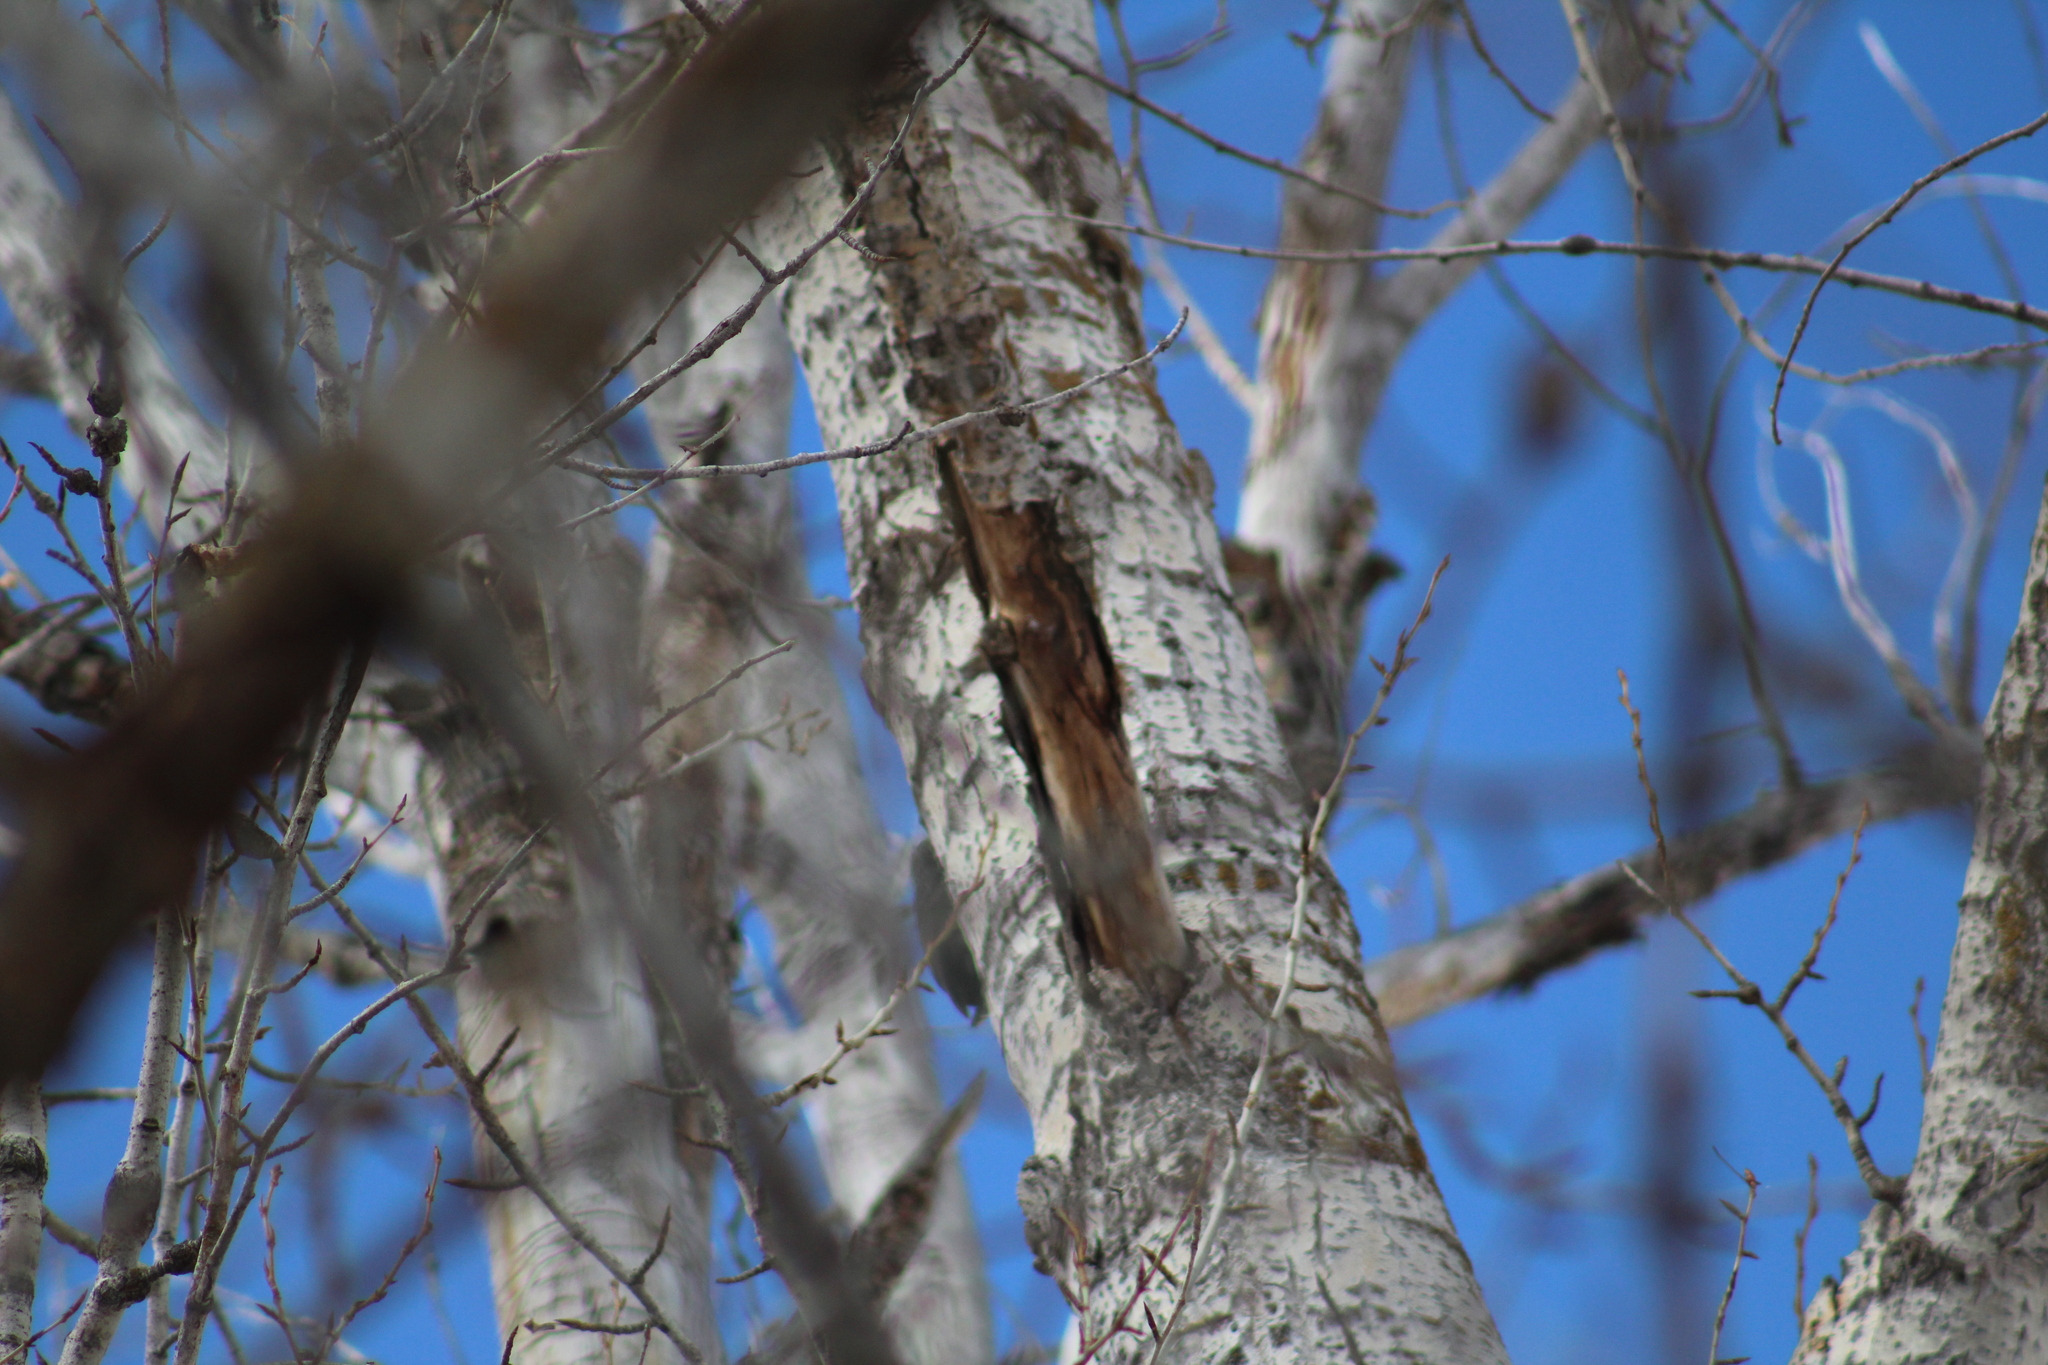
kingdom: Animalia
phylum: Chordata
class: Aves
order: Piciformes
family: Picidae
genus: Dryocopus
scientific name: Dryocopus pileatus
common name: Pileated woodpecker
